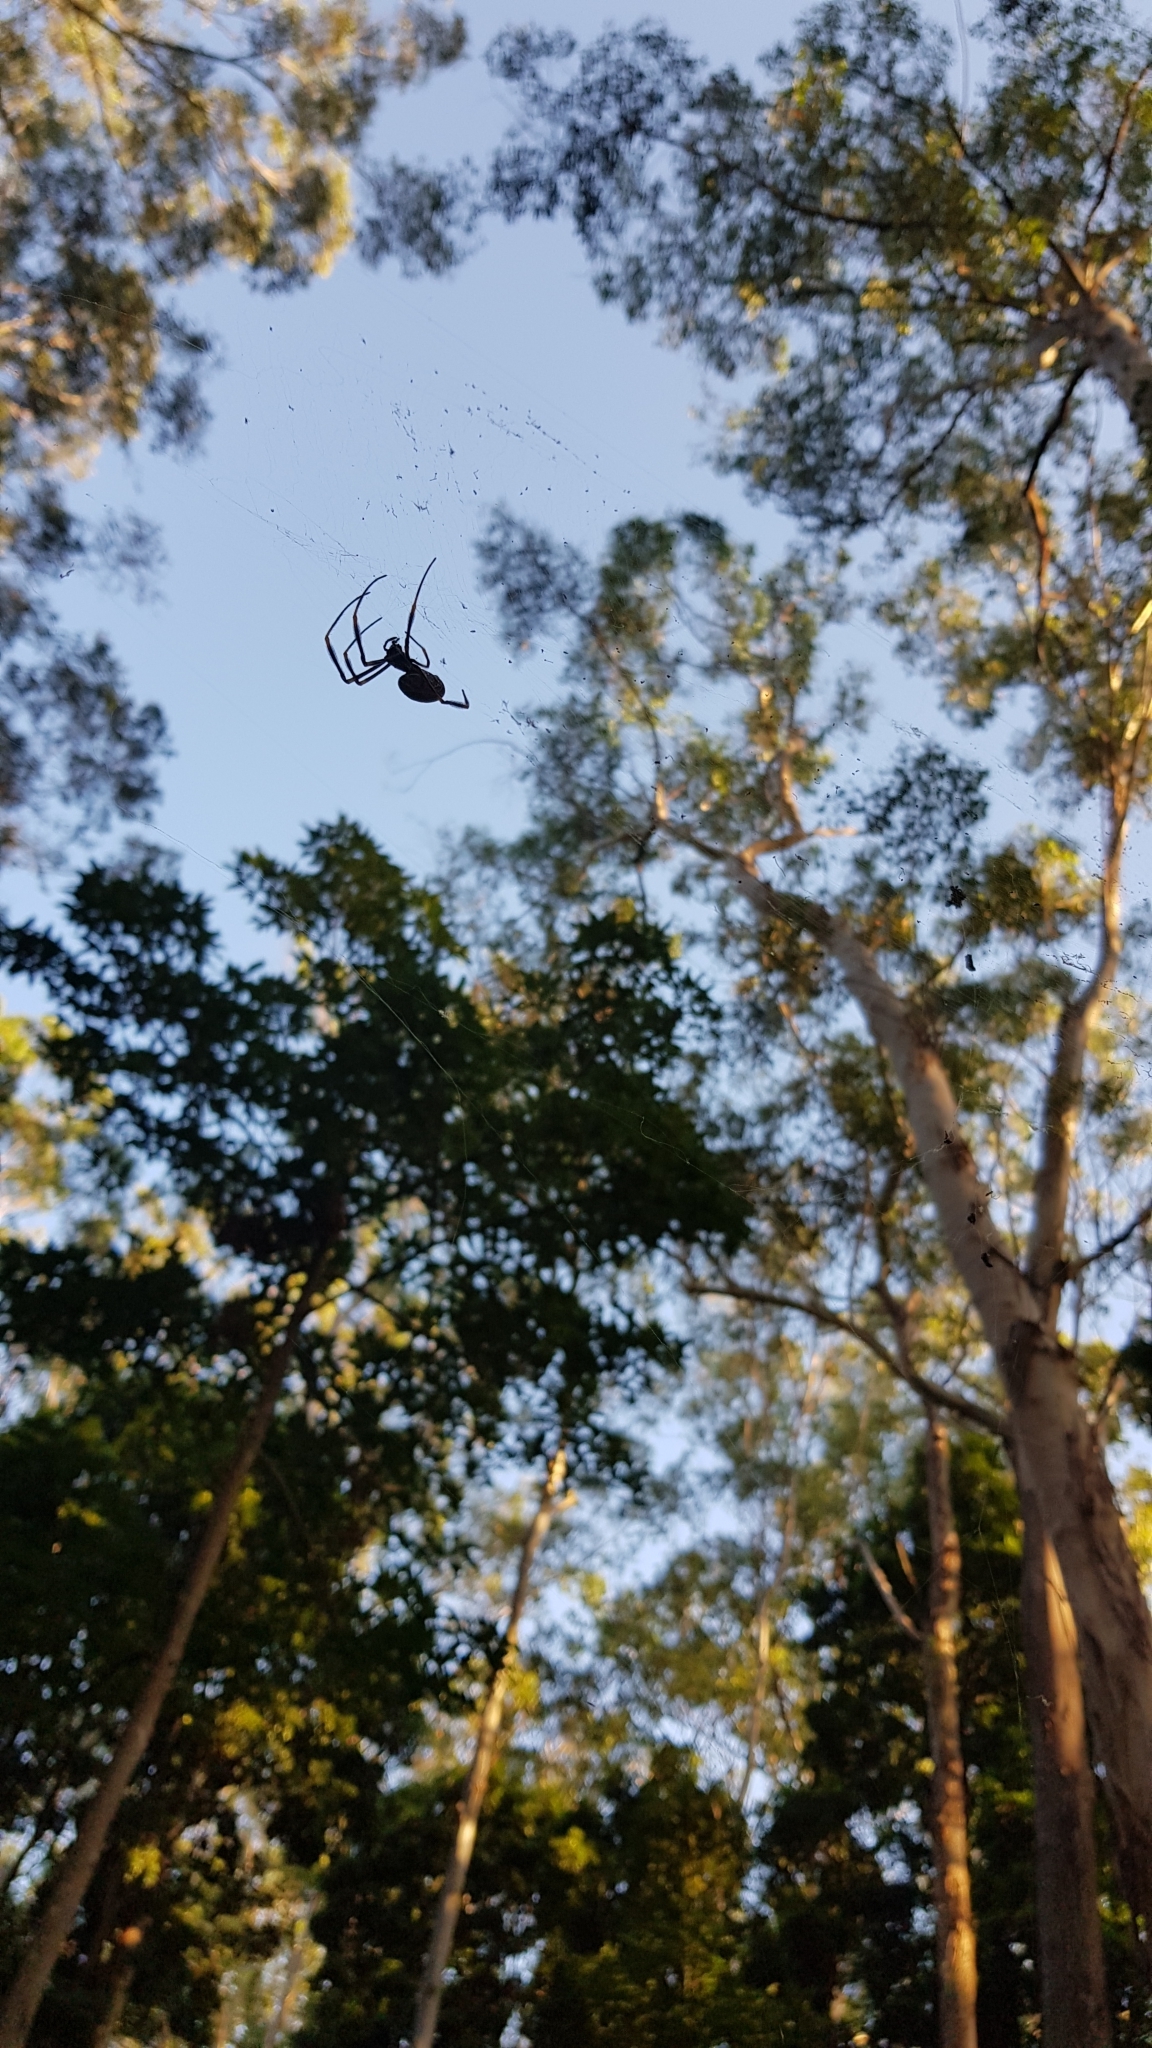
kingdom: Animalia
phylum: Arthropoda
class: Arachnida
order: Araneae
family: Araneidae
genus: Trichonephila
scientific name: Trichonephila plumipes
